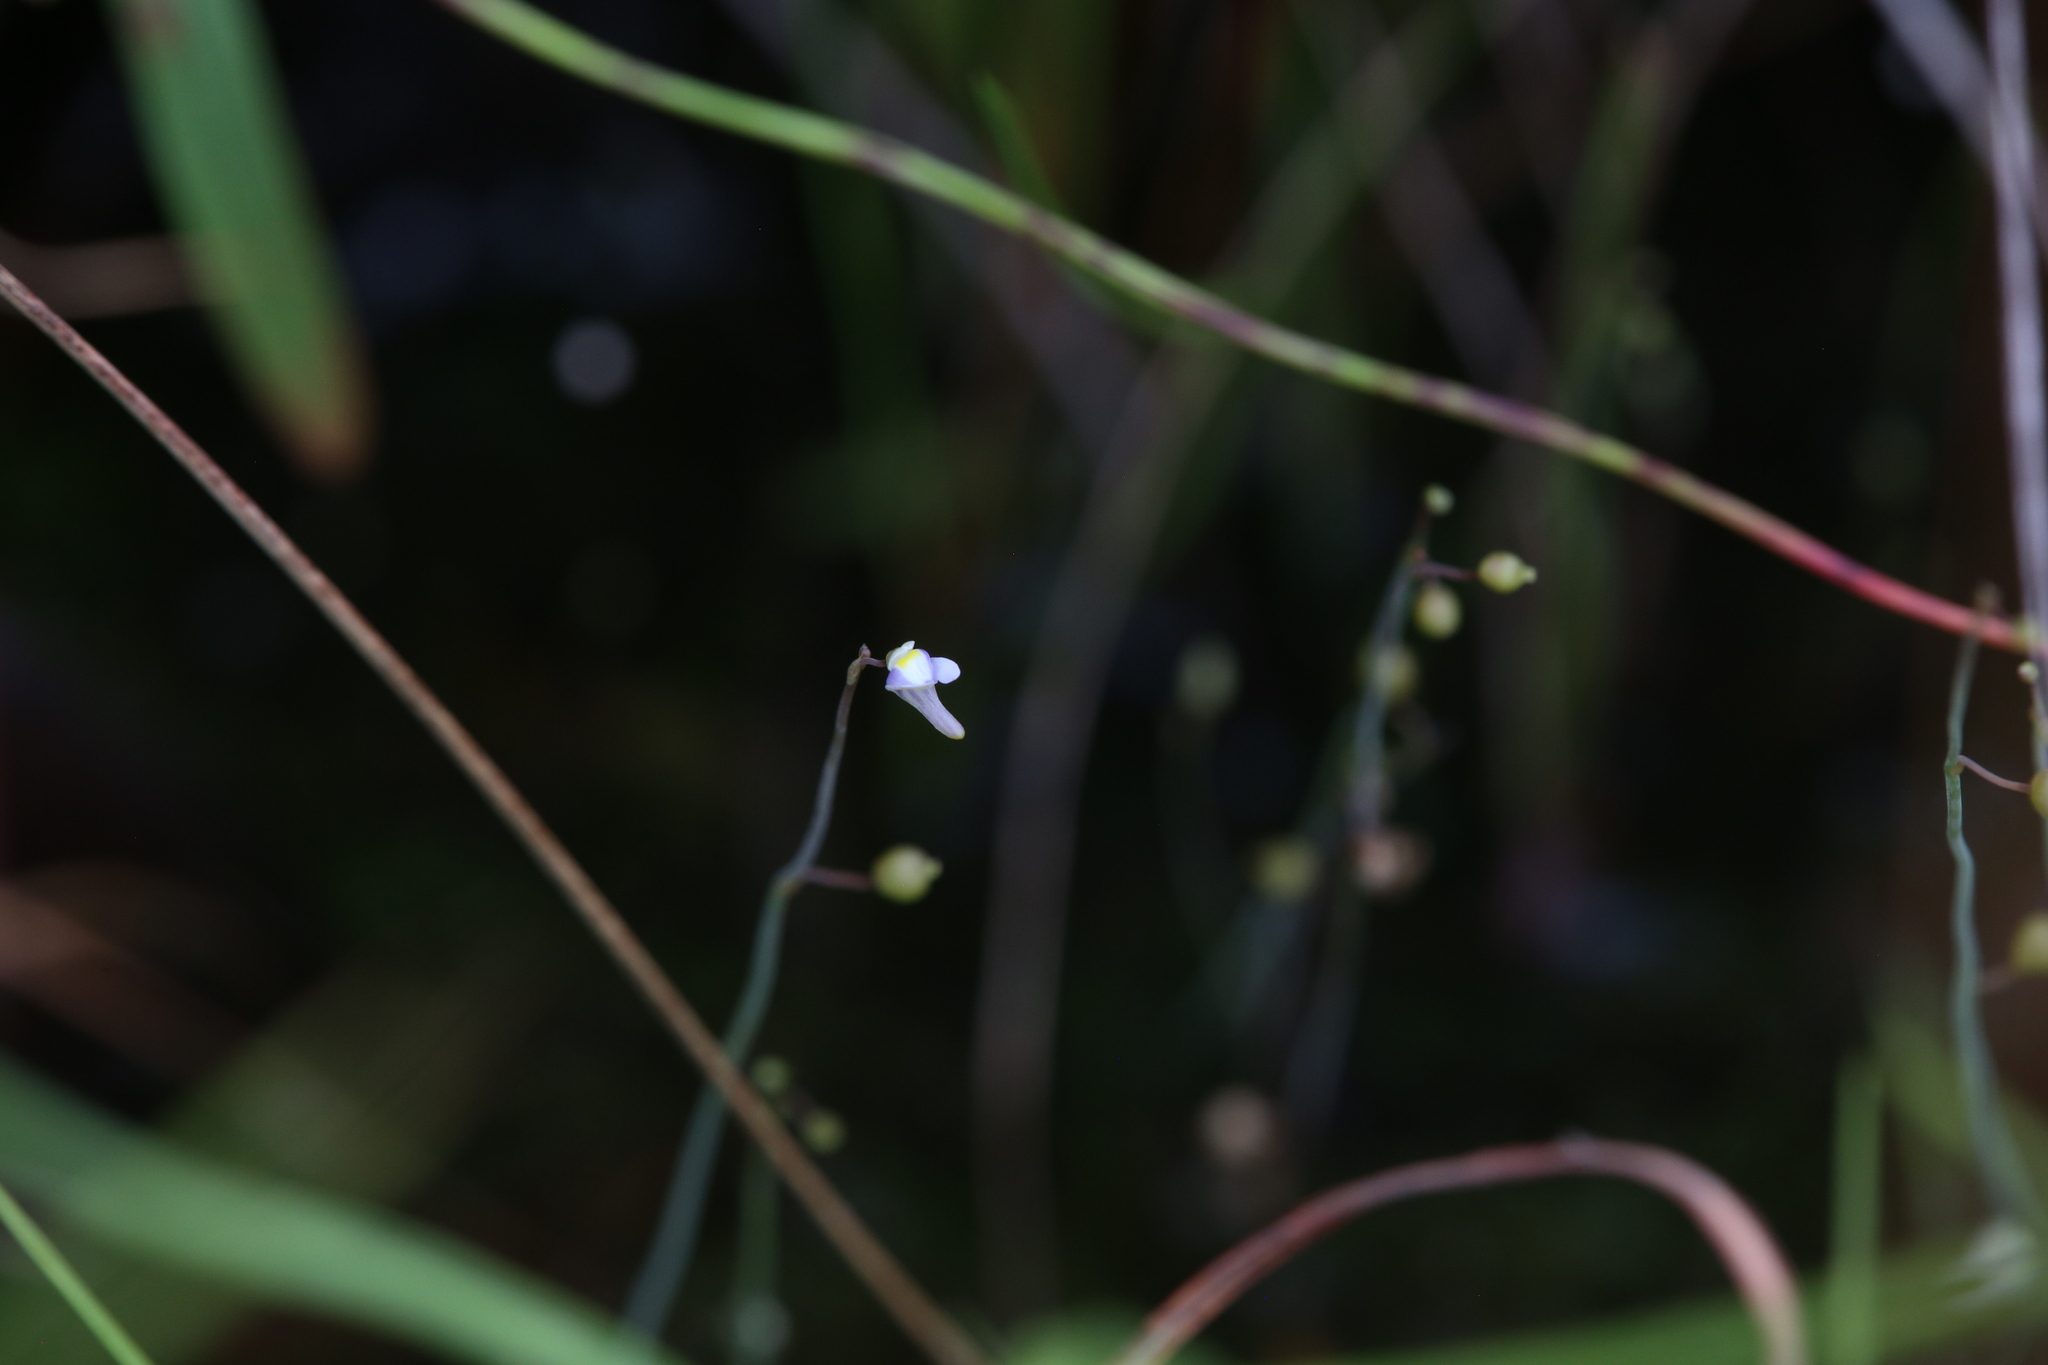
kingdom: Plantae
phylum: Tracheophyta
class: Magnoliopsida
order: Lamiales
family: Lentibulariaceae
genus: Utricularia
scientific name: Utricularia limosa
